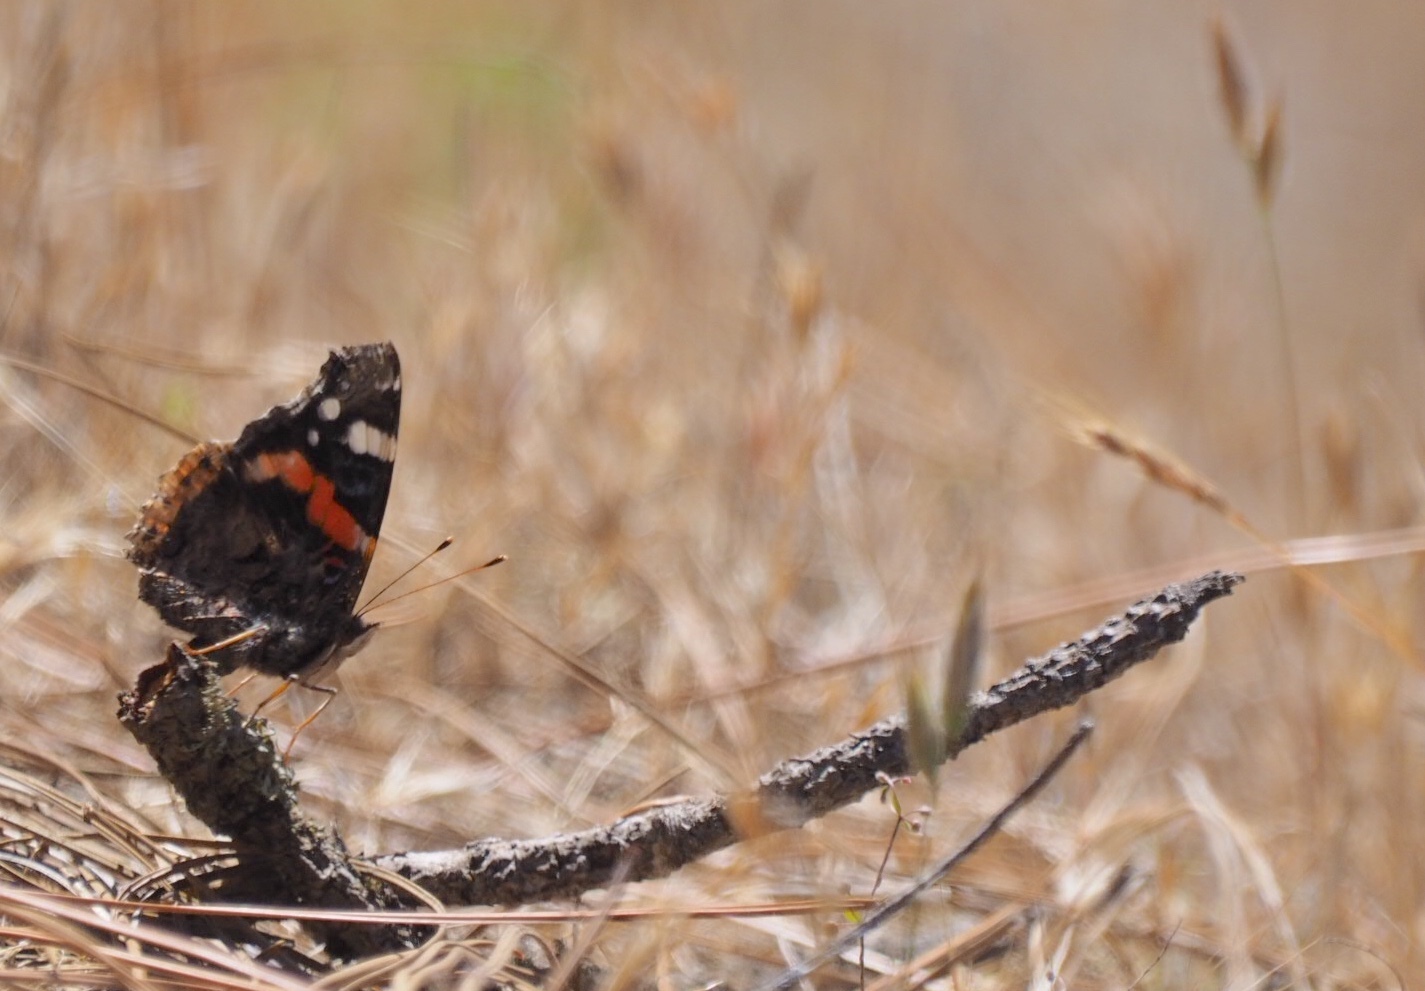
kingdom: Animalia
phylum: Arthropoda
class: Insecta
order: Lepidoptera
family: Nymphalidae
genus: Vanessa
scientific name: Vanessa atalanta
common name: Red admiral
